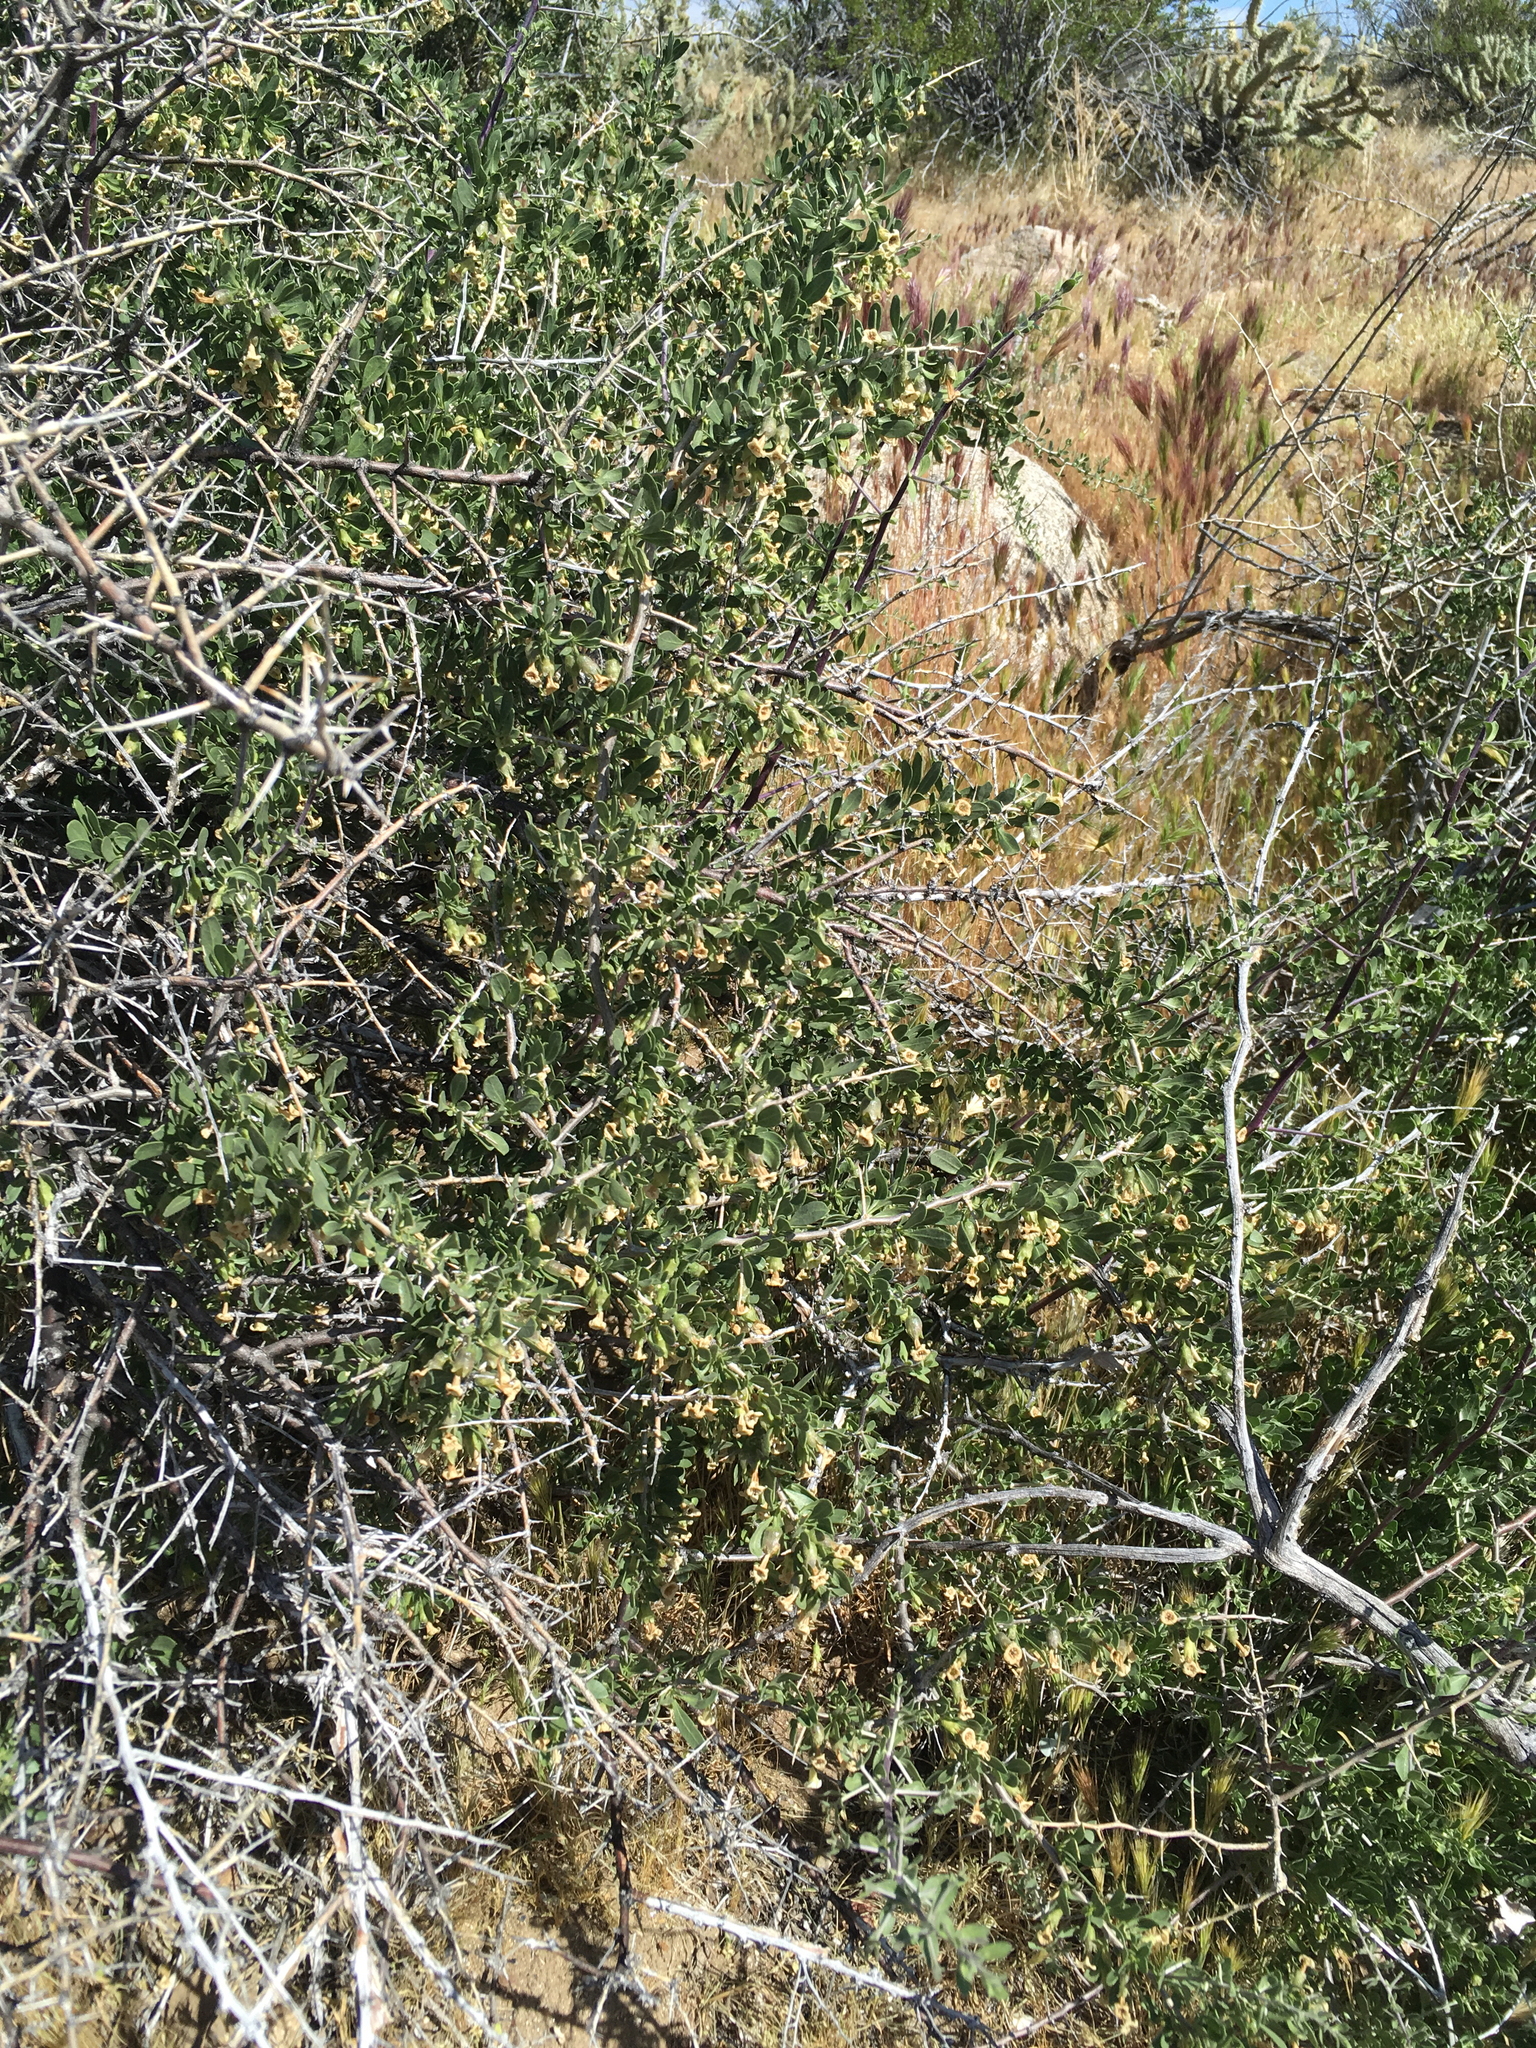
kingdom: Plantae
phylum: Tracheophyta
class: Magnoliopsida
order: Solanales
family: Solanaceae
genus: Lycium
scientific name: Lycium cooperi
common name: Peachthorn
